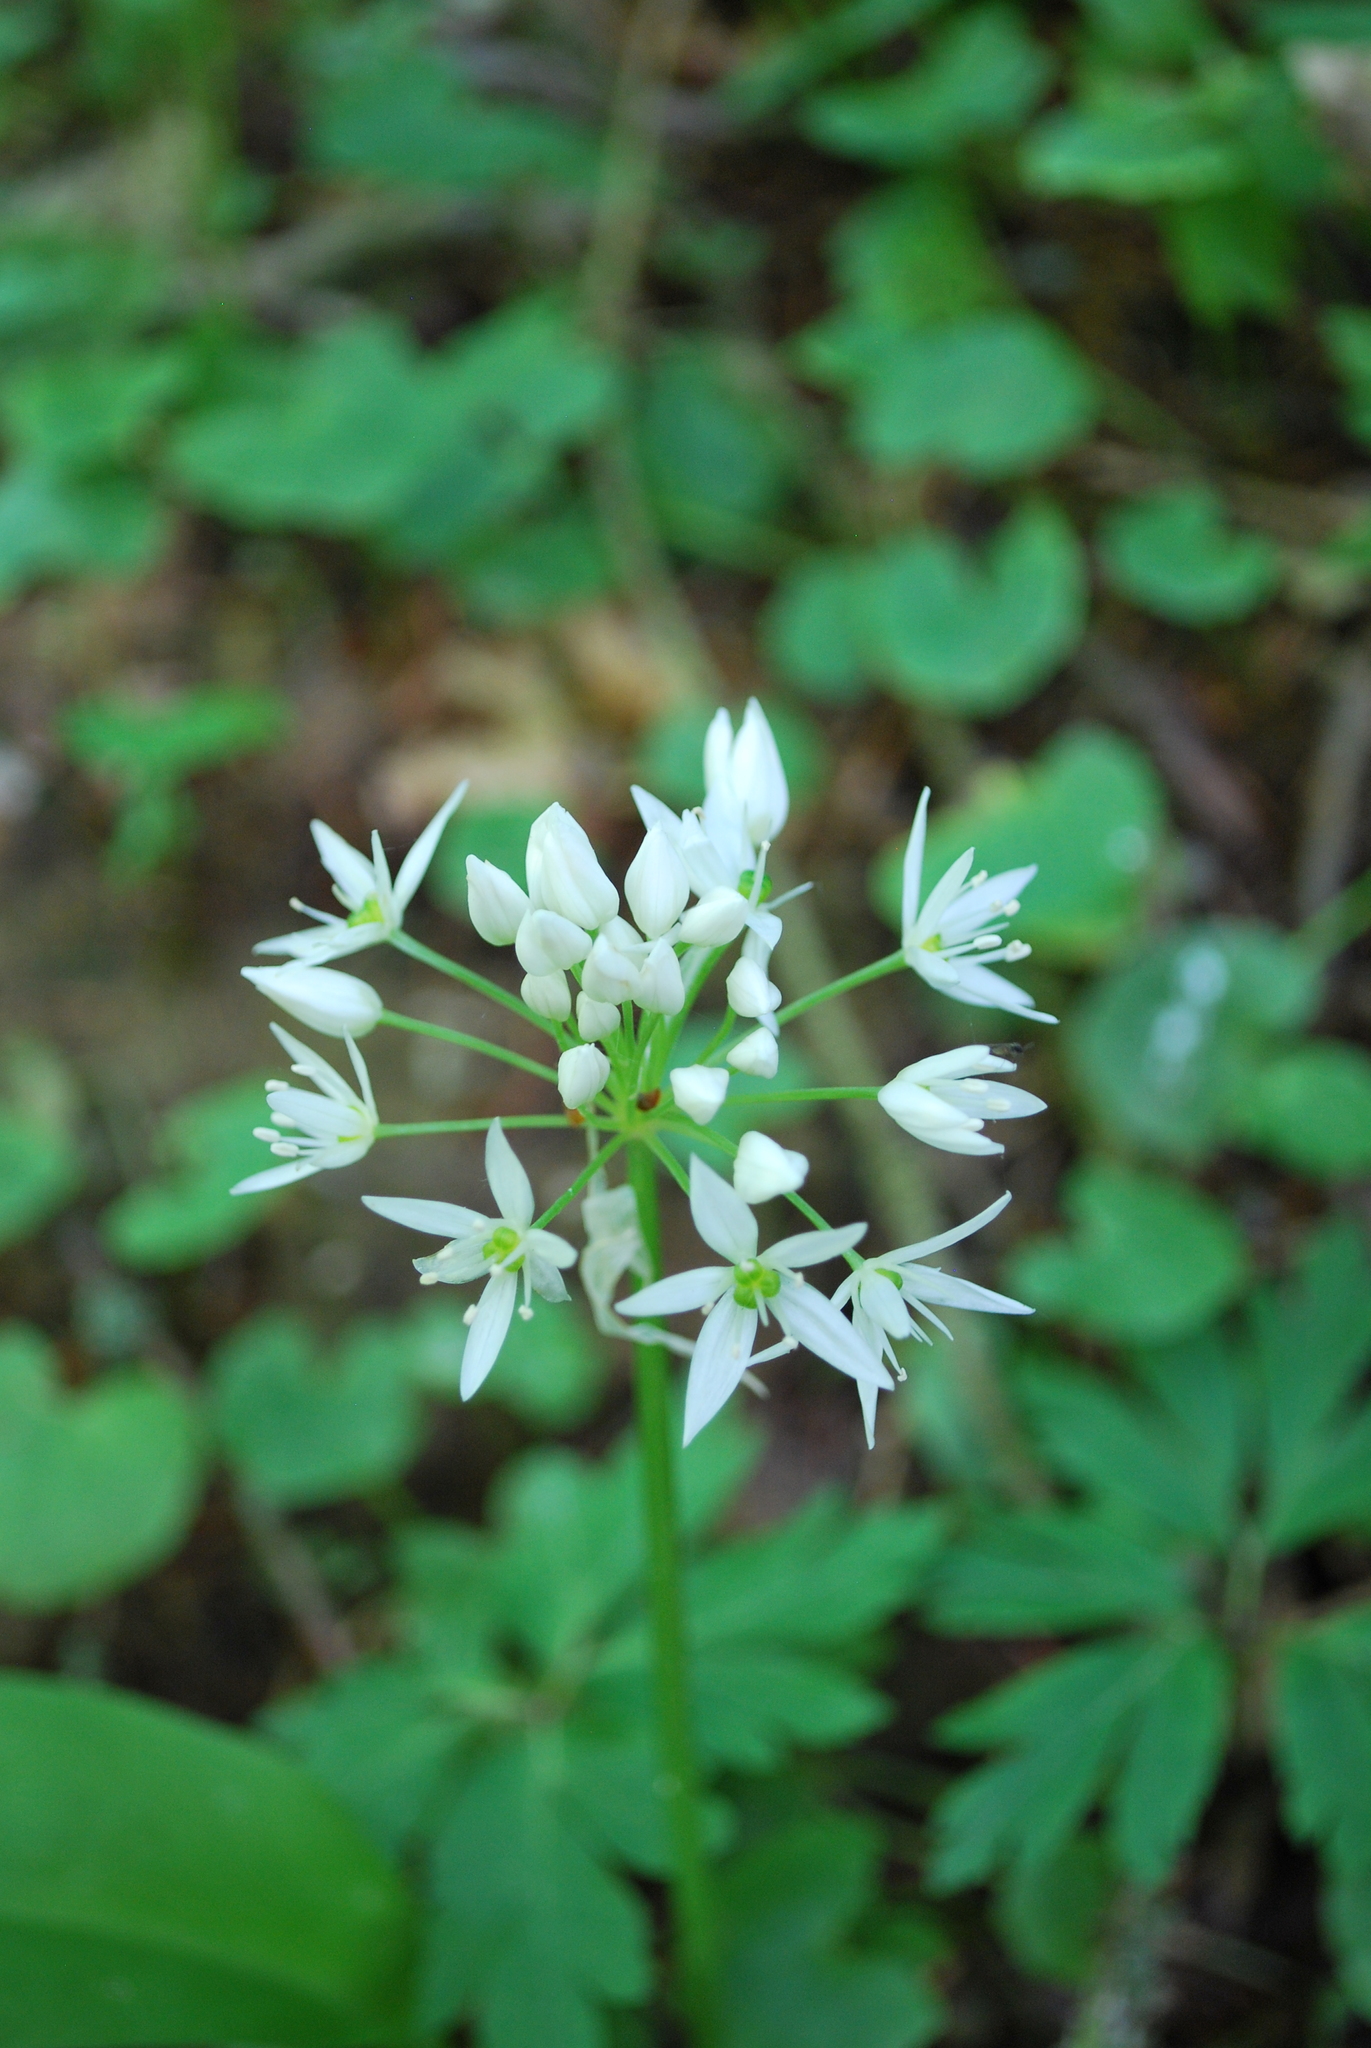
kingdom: Plantae
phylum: Tracheophyta
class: Liliopsida
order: Asparagales
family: Amaryllidaceae
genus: Allium
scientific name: Allium ursinum
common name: Ramsons
